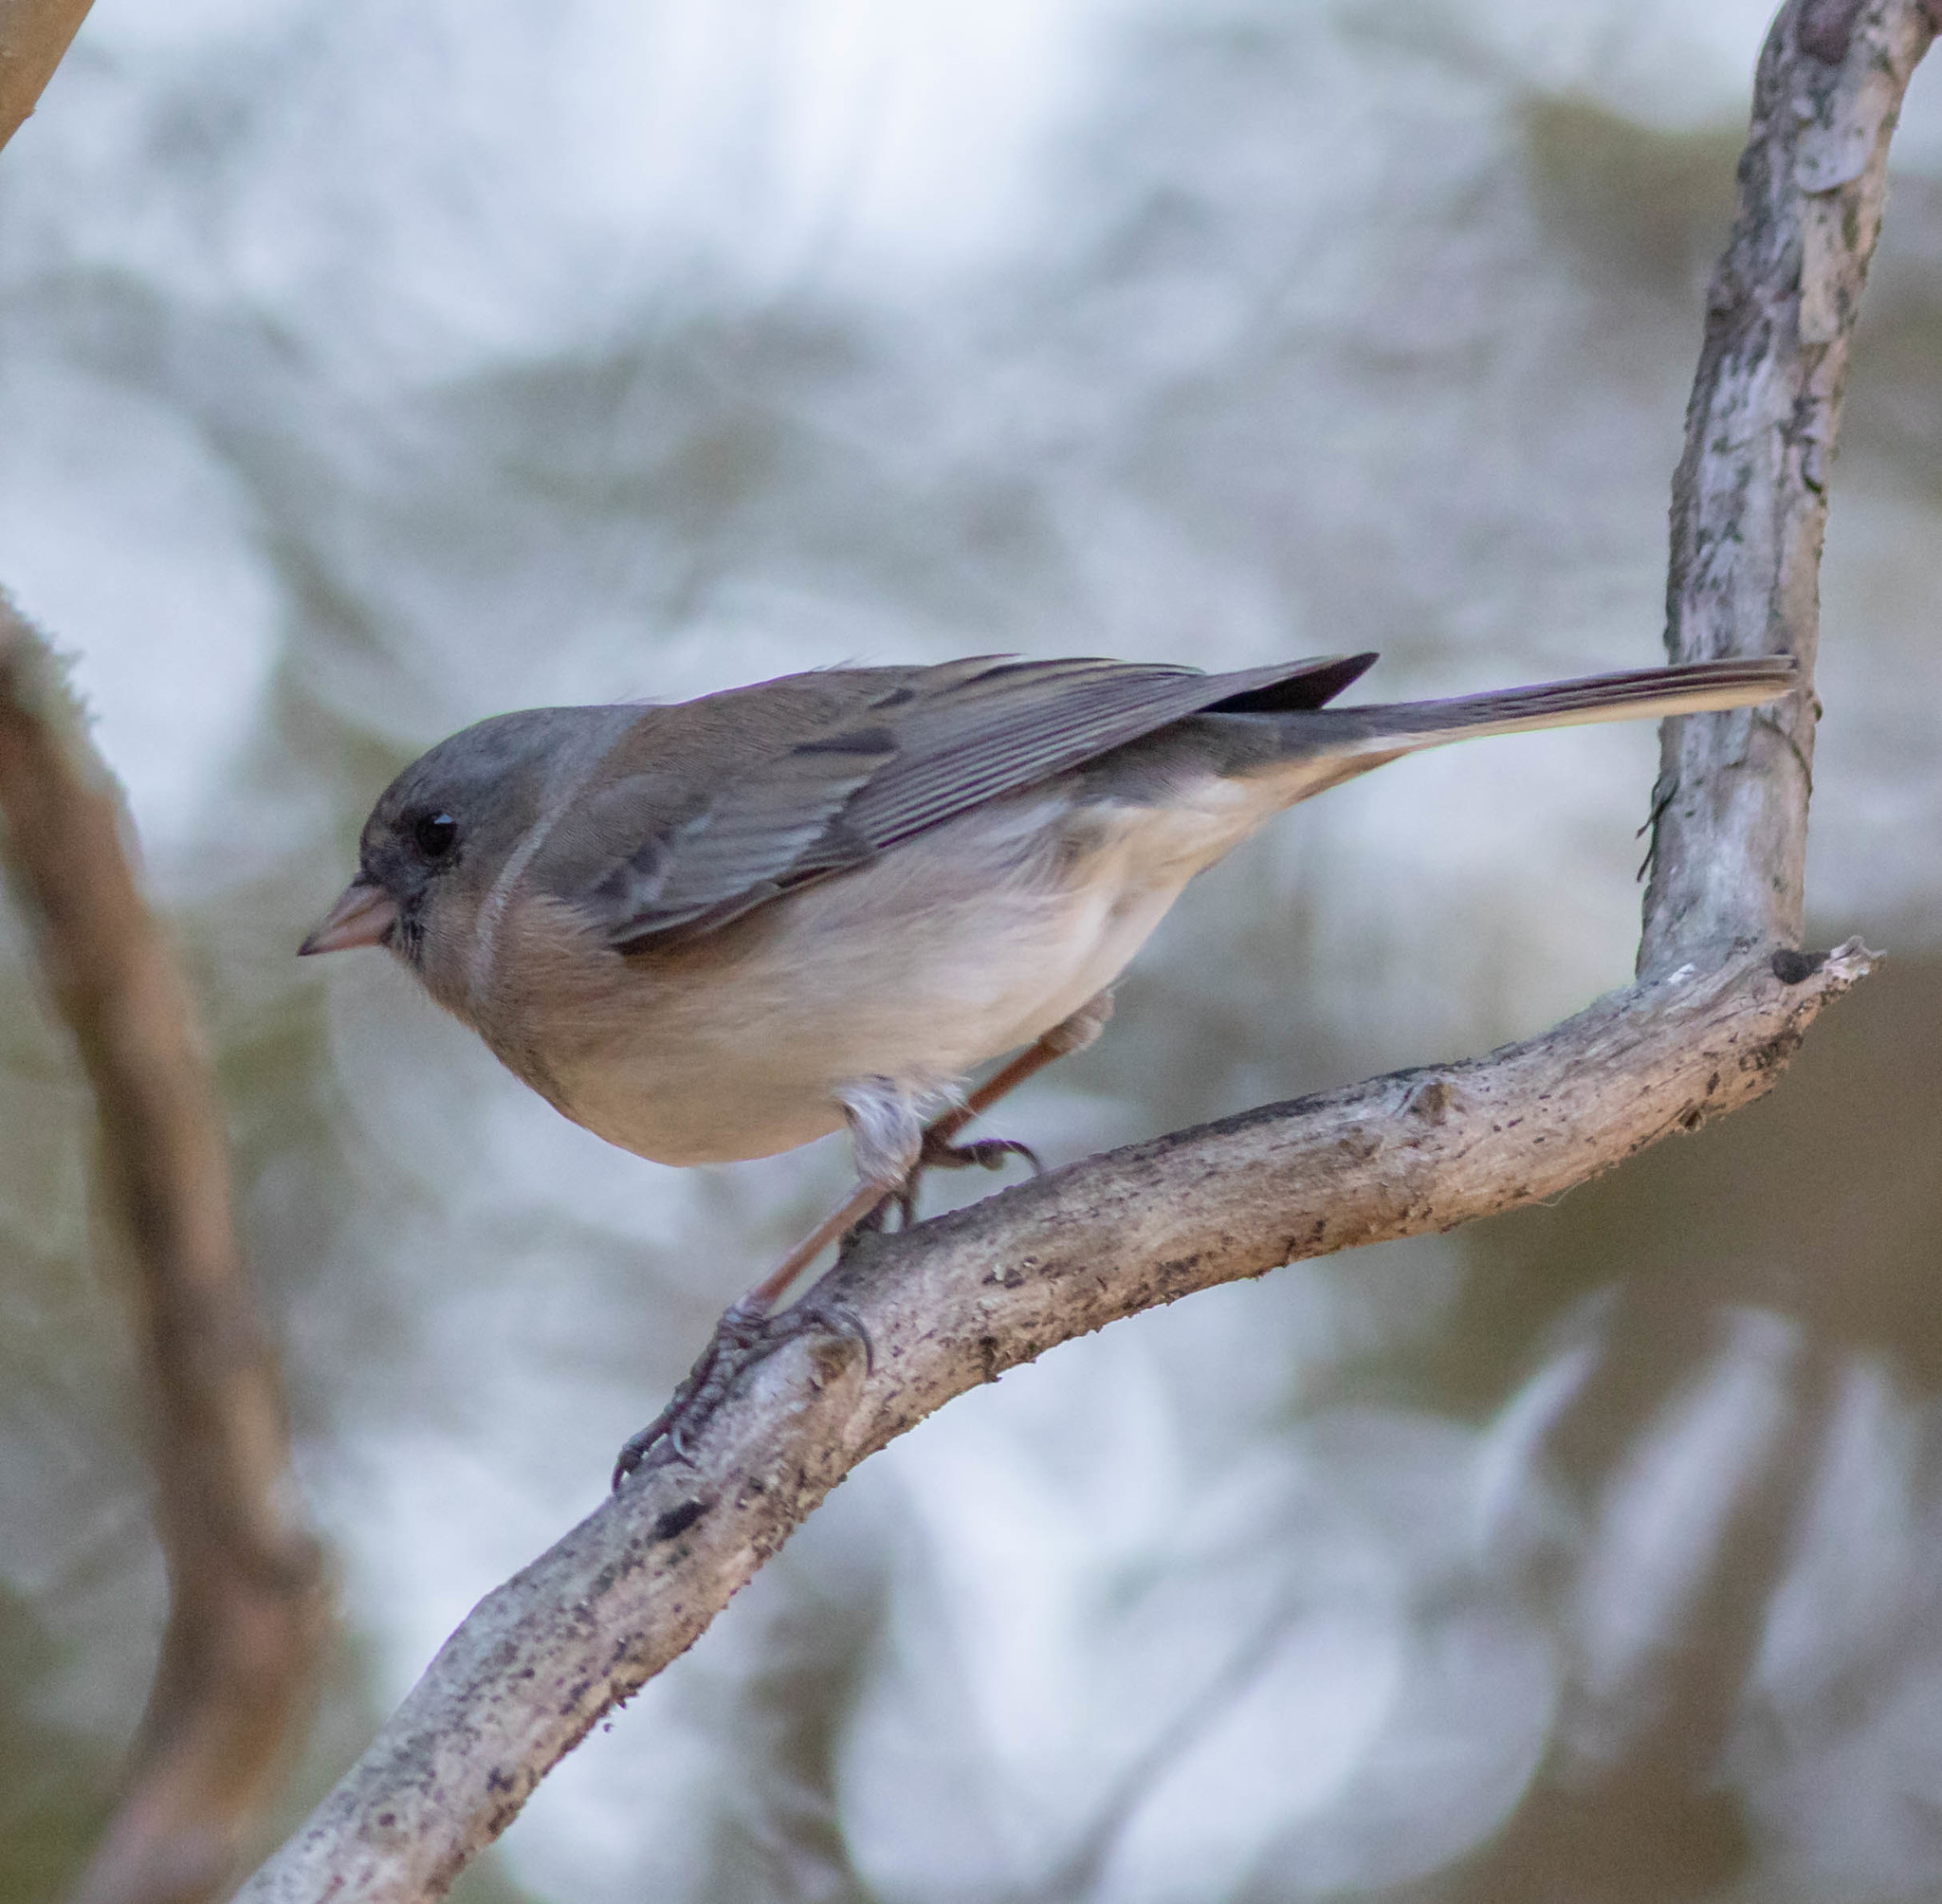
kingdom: Animalia
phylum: Chordata
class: Aves
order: Passeriformes
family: Passerellidae
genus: Junco
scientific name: Junco hyemalis
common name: Dark-eyed junco
